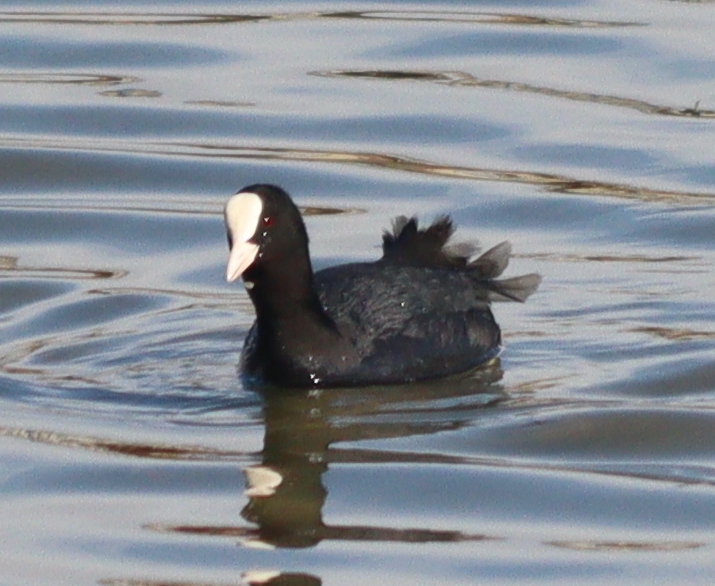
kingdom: Animalia
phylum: Chordata
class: Aves
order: Gruiformes
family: Rallidae
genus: Fulica
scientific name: Fulica atra
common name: Eurasian coot
